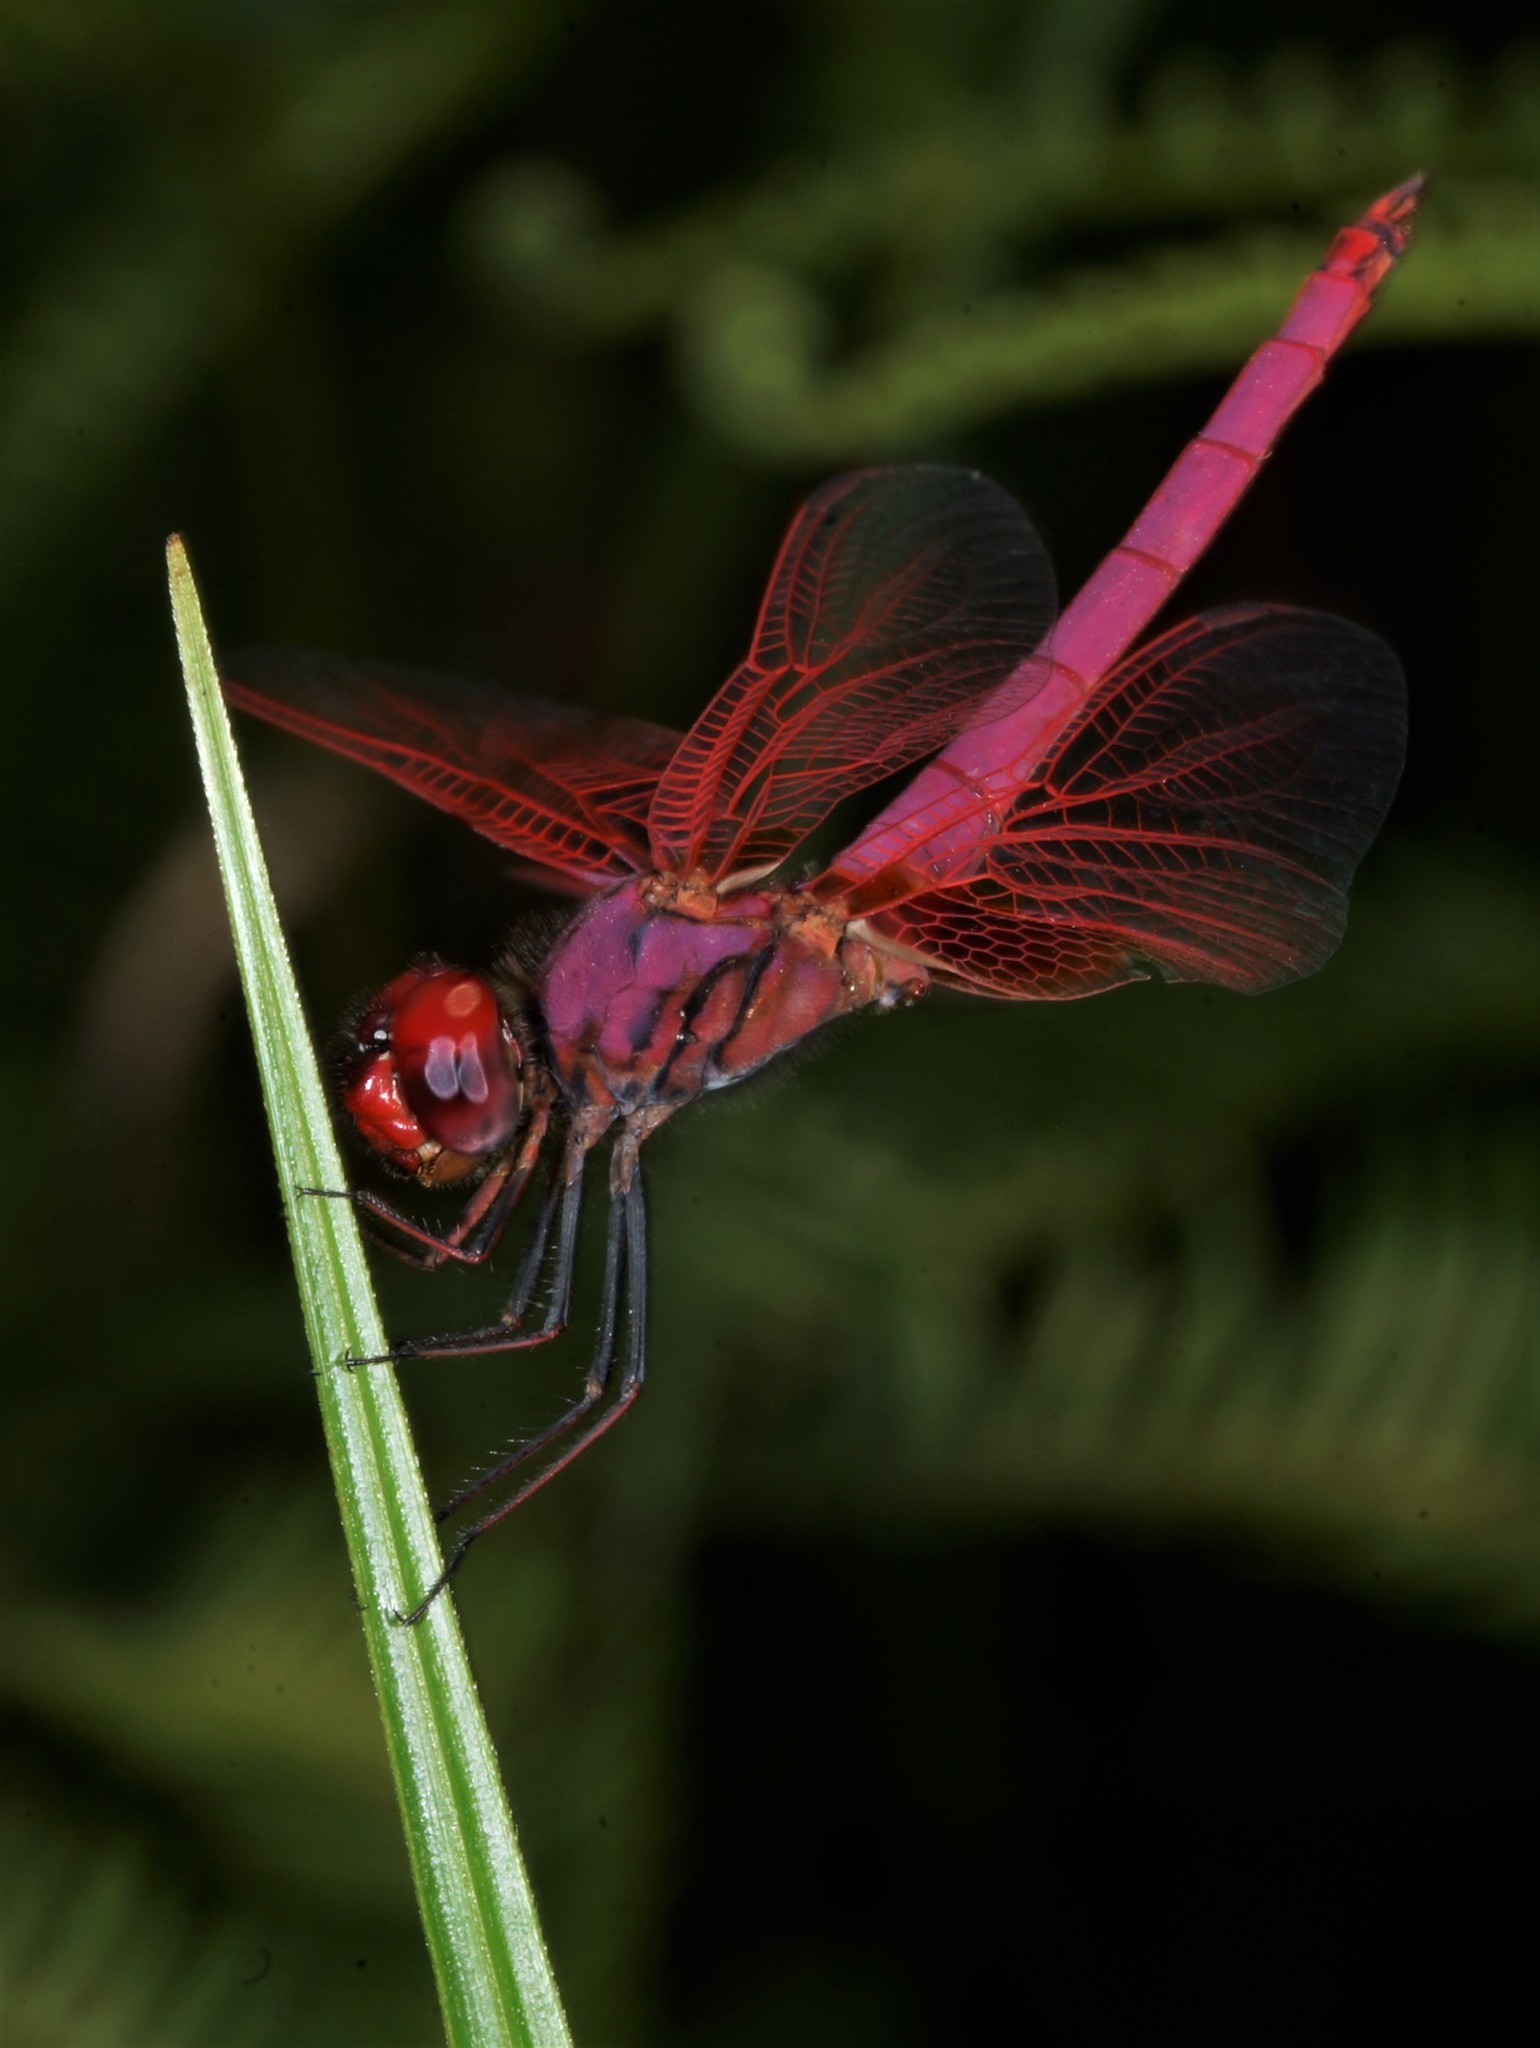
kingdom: Animalia
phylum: Arthropoda
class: Insecta
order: Odonata
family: Libellulidae
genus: Trithemis
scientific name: Trithemis aurora
